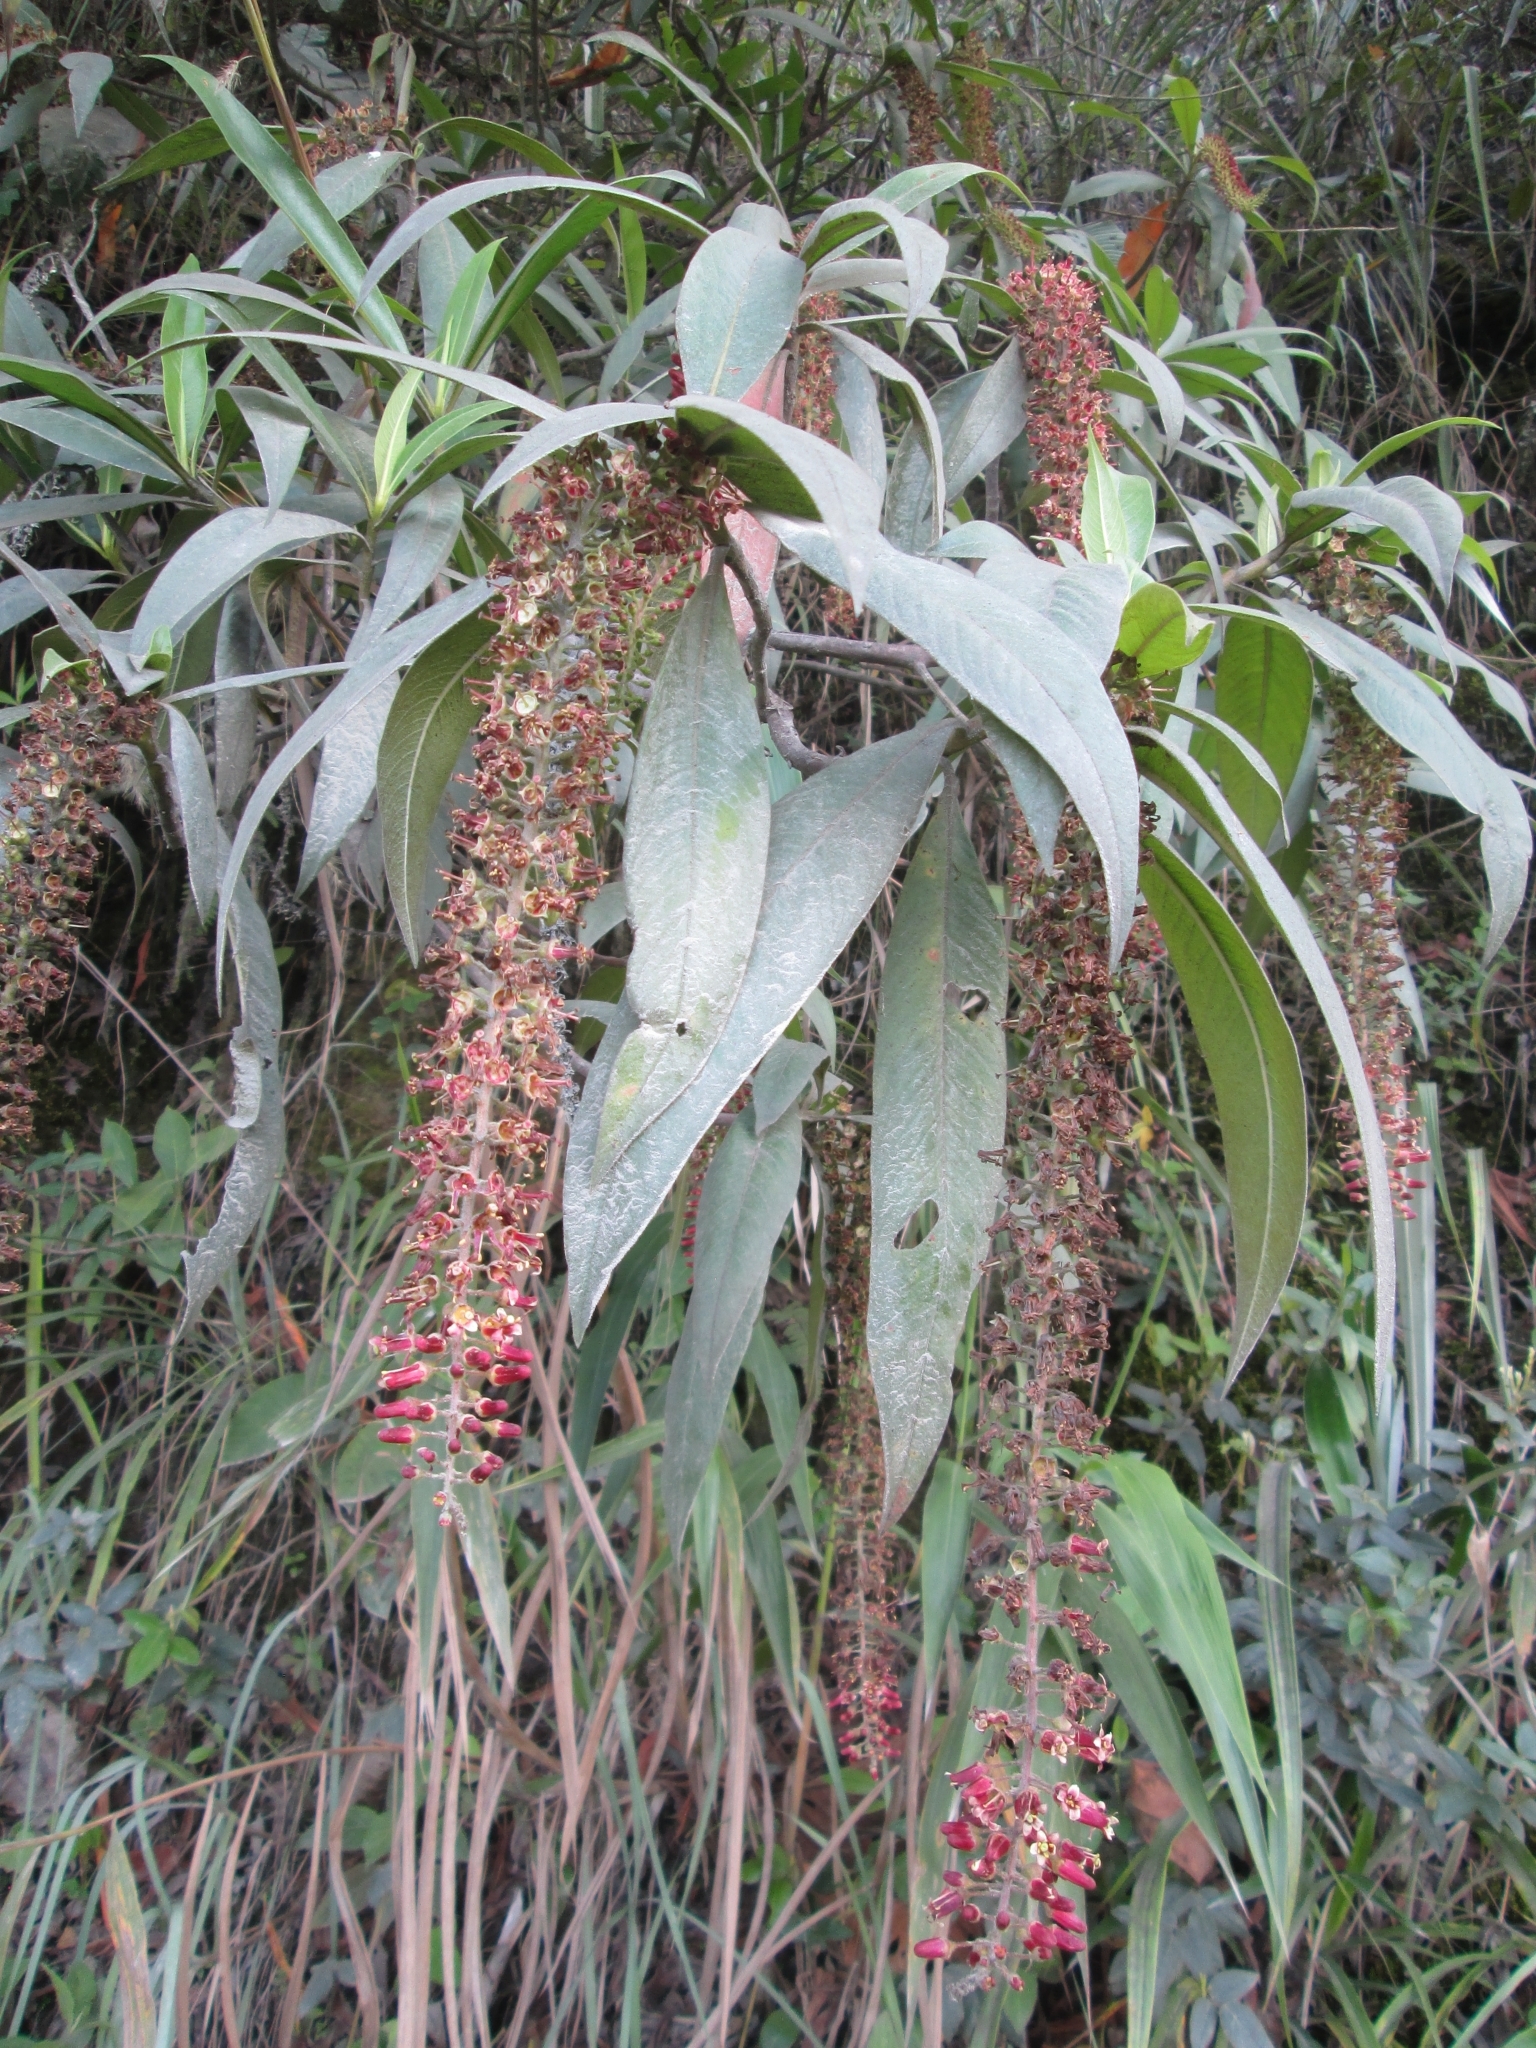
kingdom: Plantae
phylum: Tracheophyta
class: Magnoliopsida
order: Escalloniales
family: Escalloniaceae
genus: Escallonia
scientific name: Escallonia pendula
